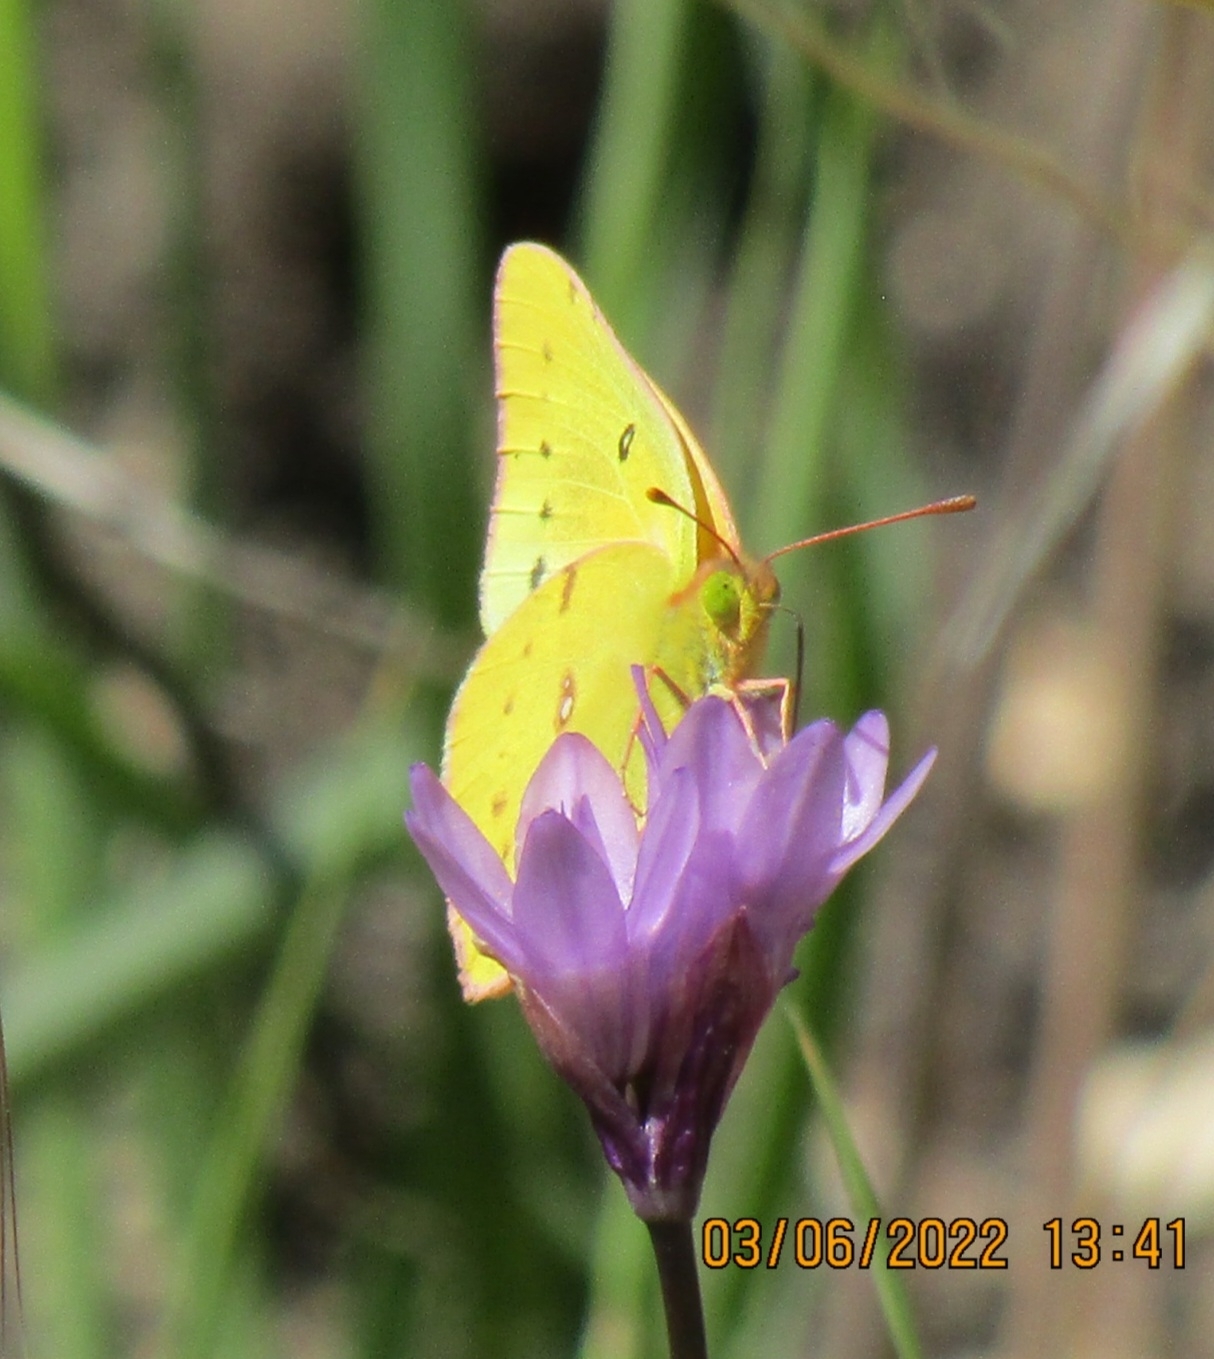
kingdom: Animalia
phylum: Arthropoda
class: Insecta
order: Lepidoptera
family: Pieridae
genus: Colias
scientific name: Colias eurytheme
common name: Alfalfa butterfly
